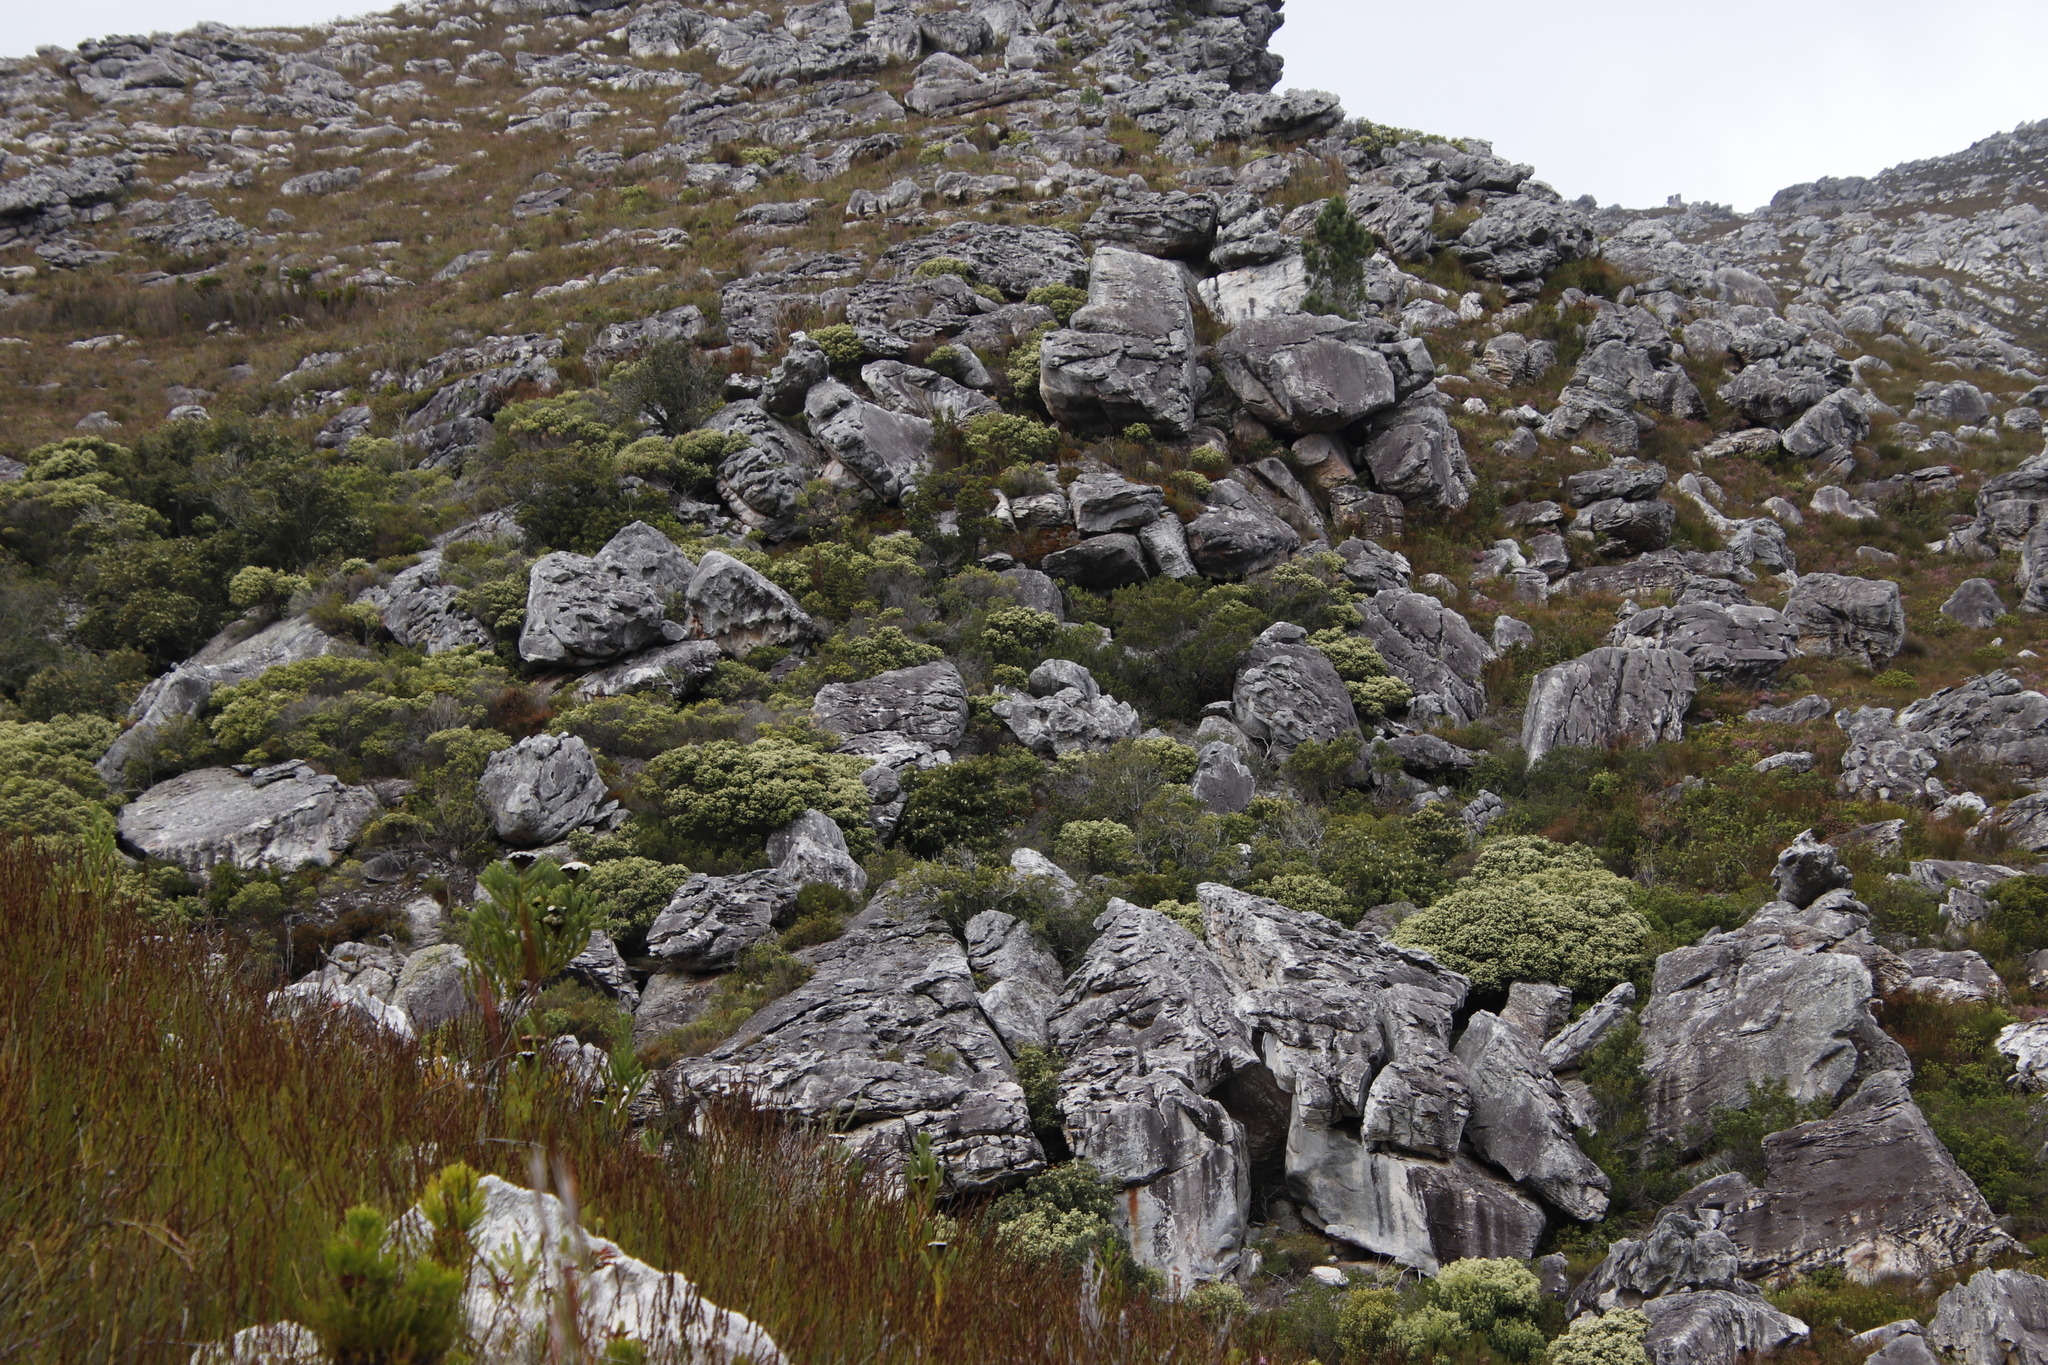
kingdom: Plantae
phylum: Tracheophyta
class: Magnoliopsida
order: Rosales
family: Rhamnaceae
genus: Phylica
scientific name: Phylica buxifolia
